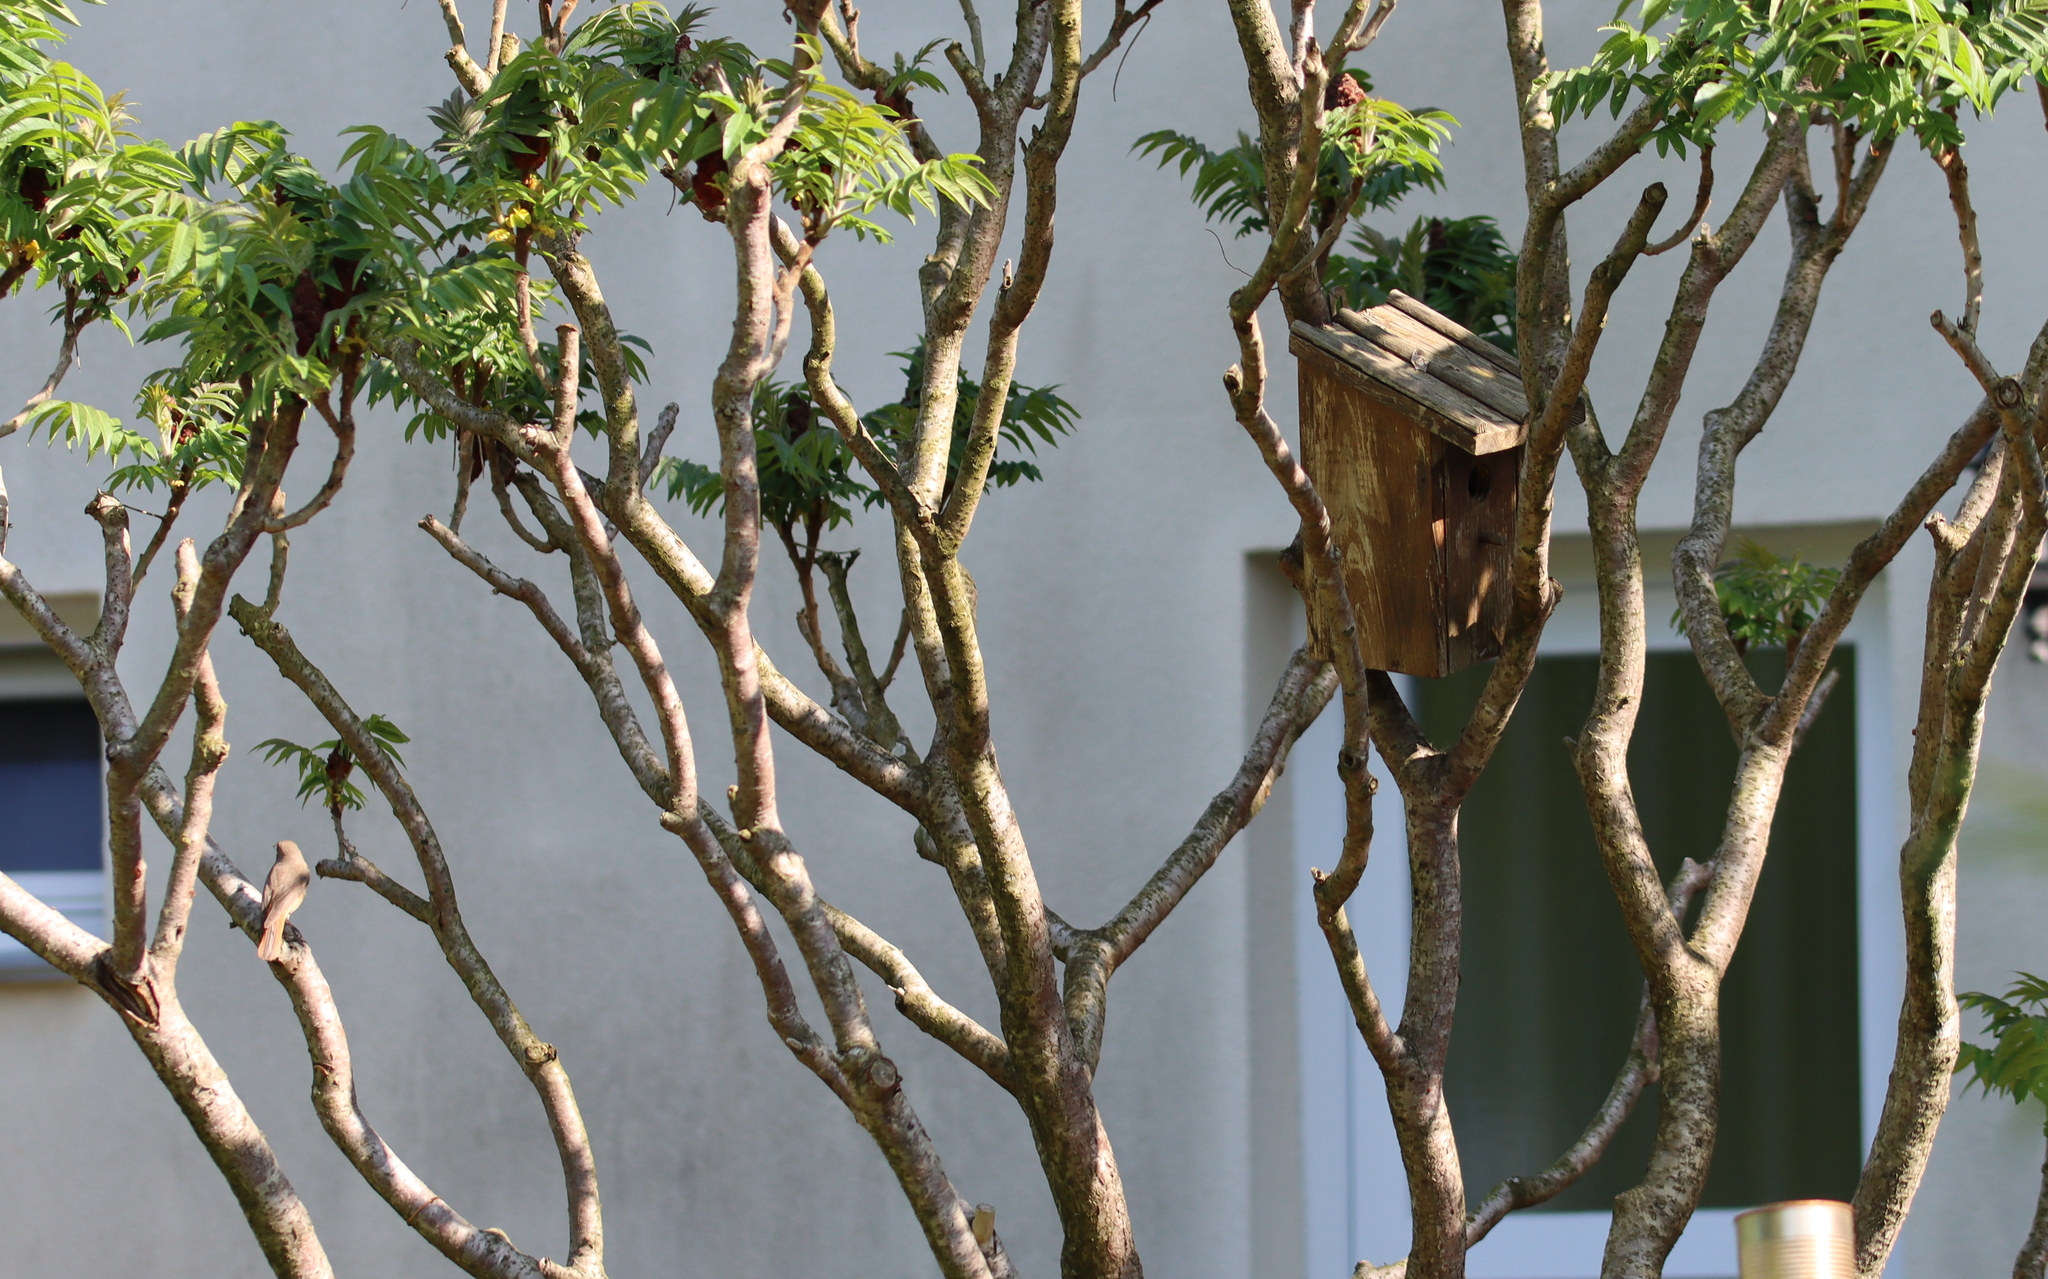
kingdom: Animalia
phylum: Chordata
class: Aves
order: Passeriformes
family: Muscicapidae
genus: Phoenicurus
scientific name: Phoenicurus phoenicurus
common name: Common redstart
